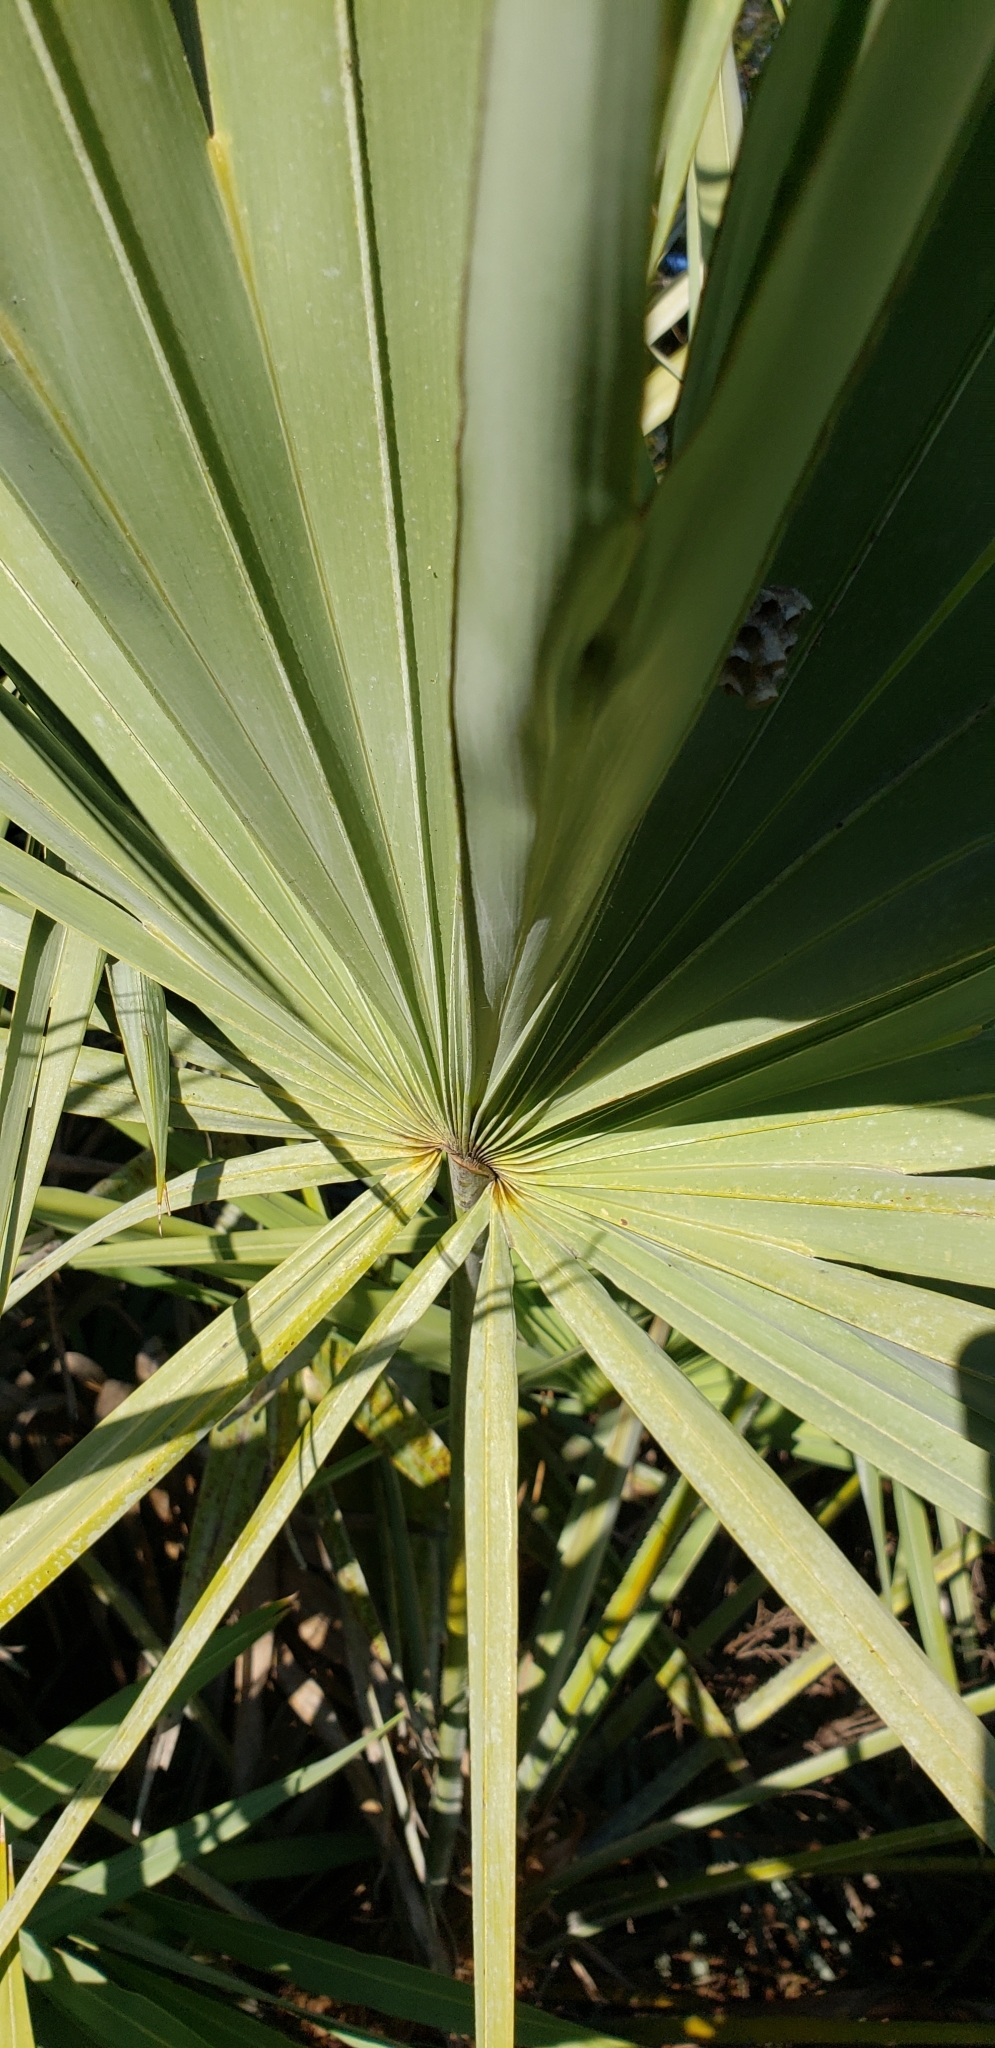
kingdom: Plantae
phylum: Tracheophyta
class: Liliopsida
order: Arecales
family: Arecaceae
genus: Serenoa
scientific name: Serenoa repens
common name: Saw-palmetto
